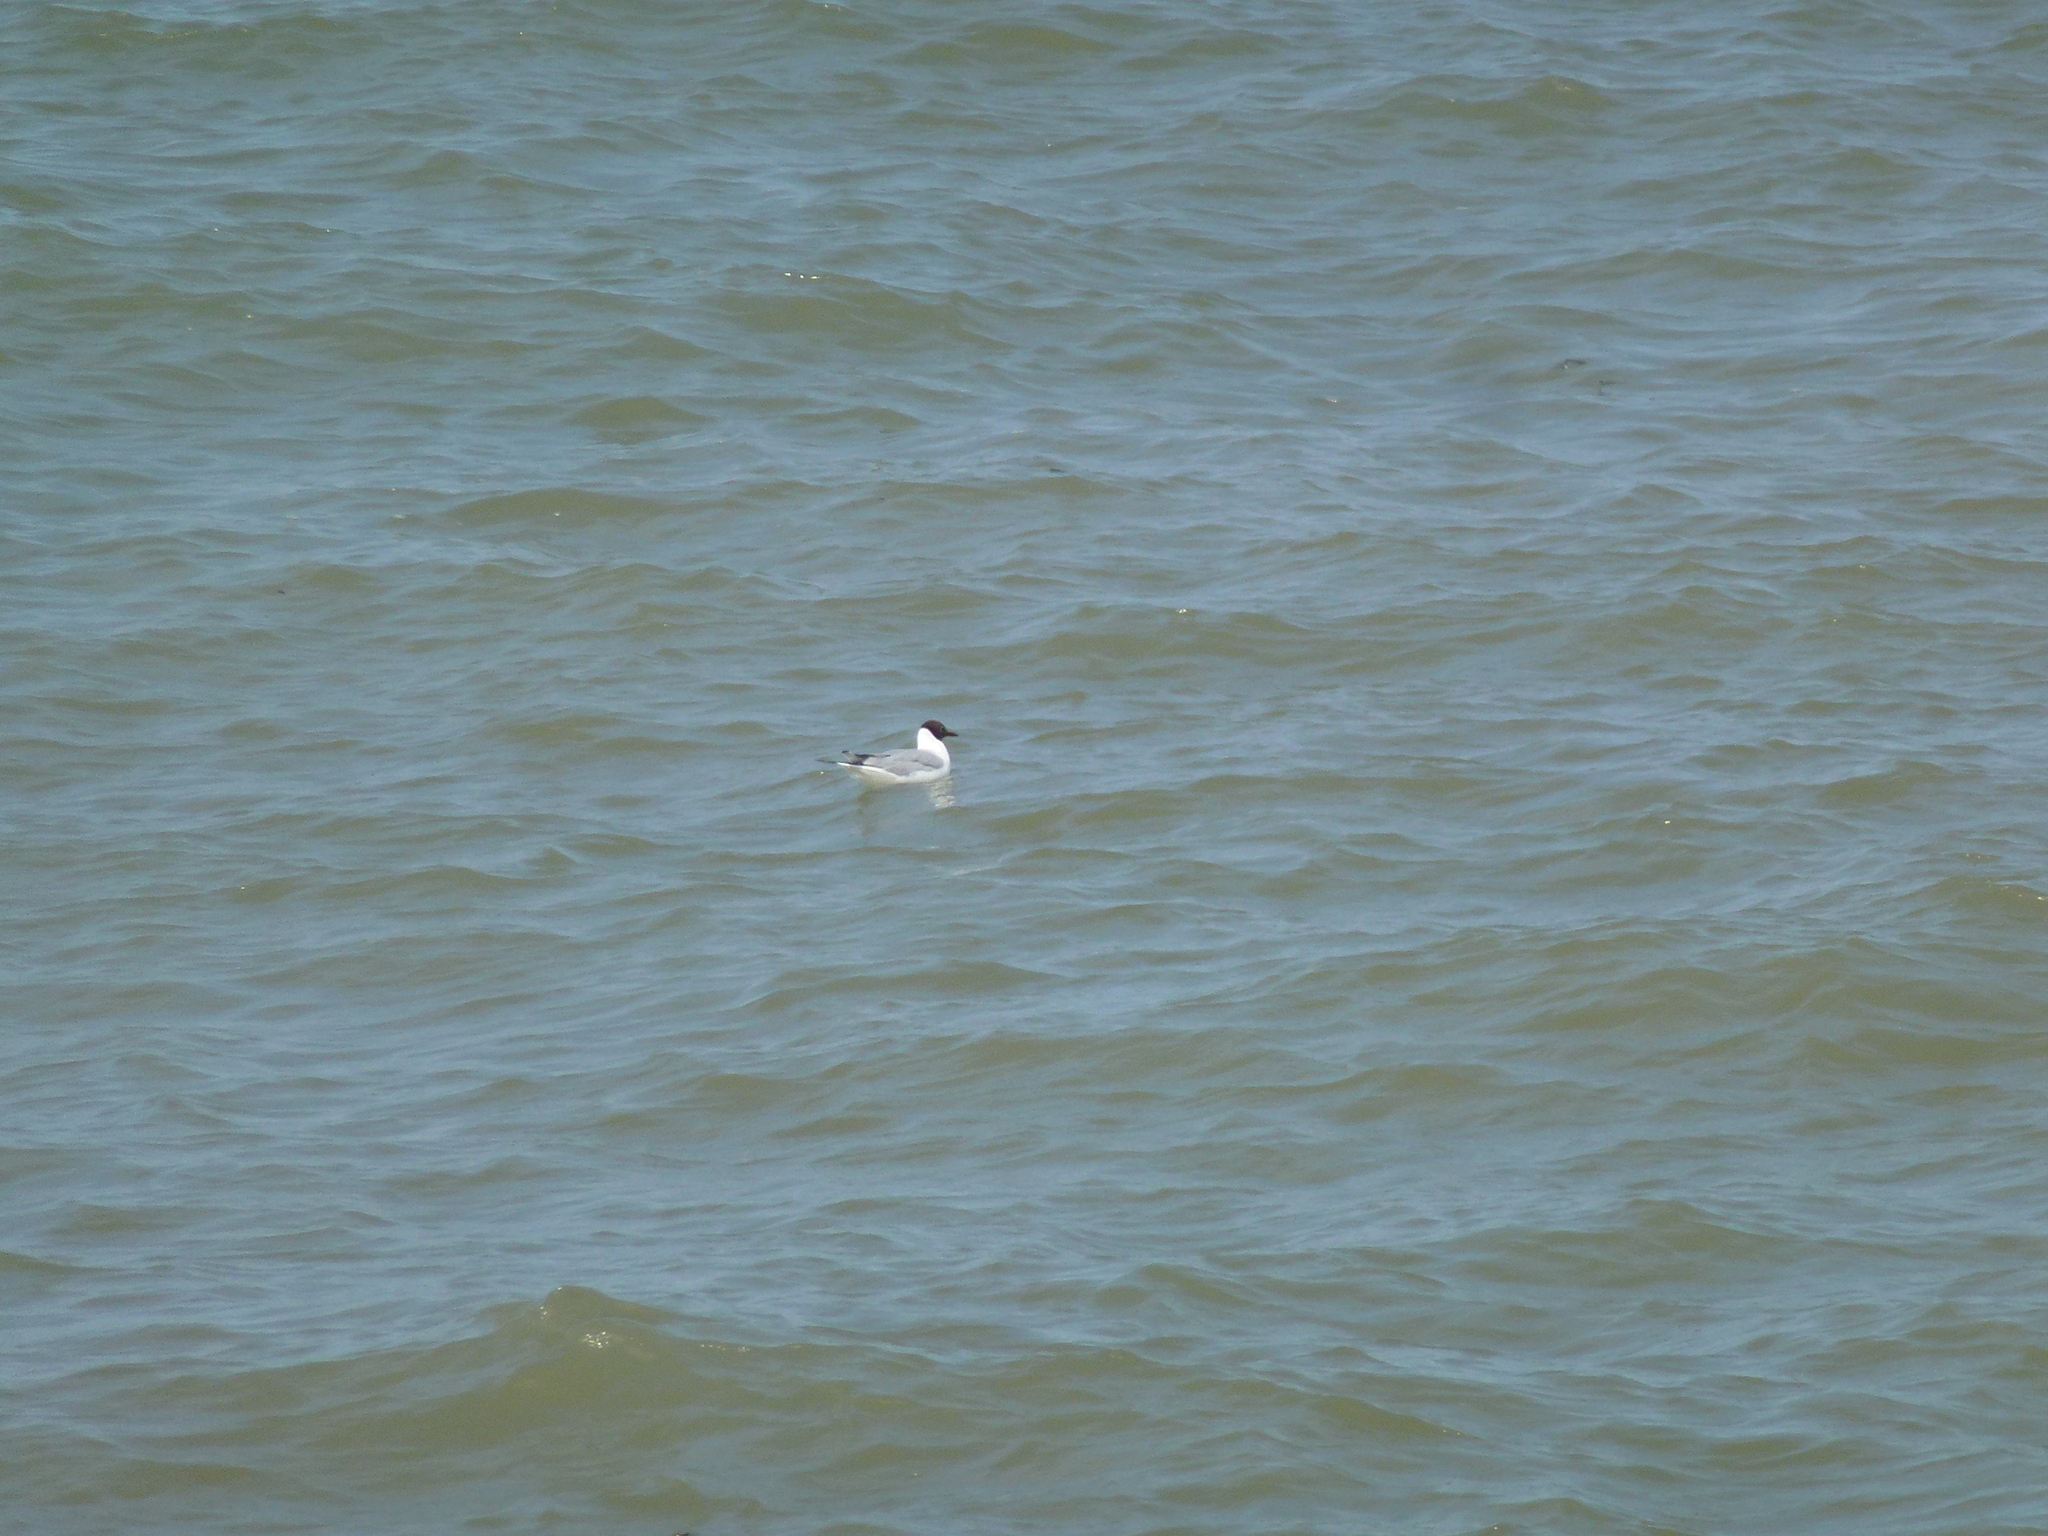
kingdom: Animalia
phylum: Chordata
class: Aves
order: Charadriiformes
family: Laridae
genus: Chroicocephalus
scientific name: Chroicocephalus ridibundus
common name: Black-headed gull
